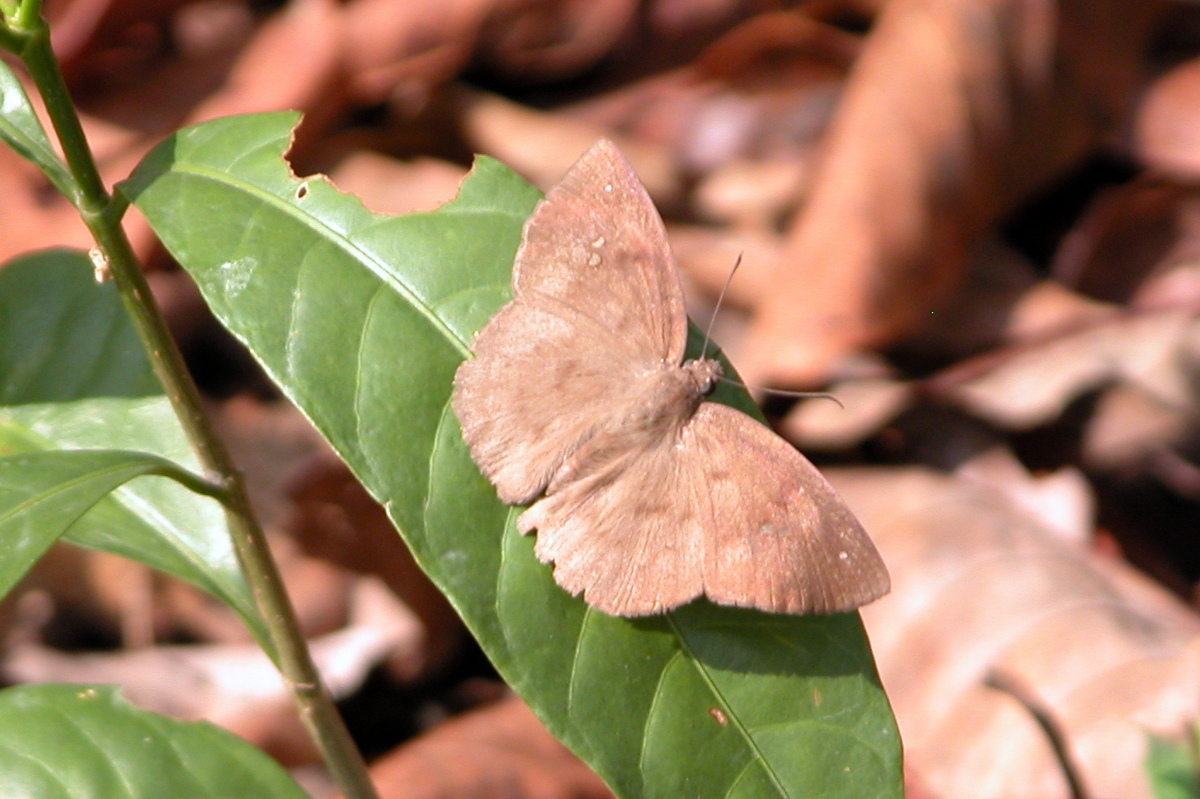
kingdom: Animalia
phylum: Arthropoda
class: Insecta
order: Lepidoptera
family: Hesperiidae
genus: Sarangesa
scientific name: Sarangesa dasahara
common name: Common small flat
